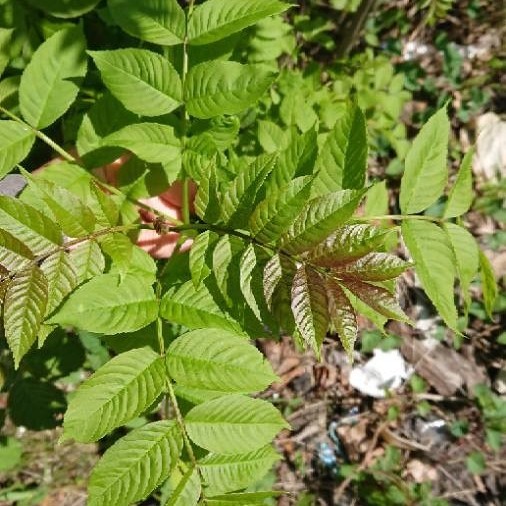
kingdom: Plantae
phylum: Tracheophyta
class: Magnoliopsida
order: Lamiales
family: Oleaceae
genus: Fraxinus
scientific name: Fraxinus excelsior
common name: European ash
